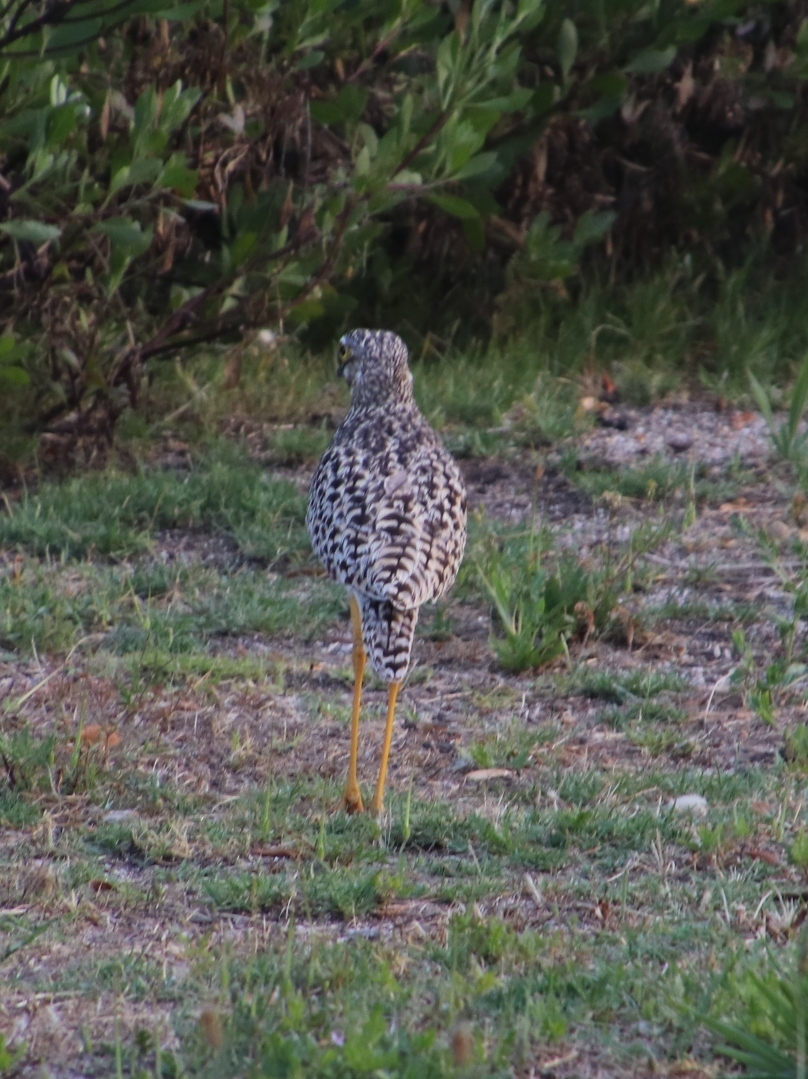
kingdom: Animalia
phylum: Chordata
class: Aves
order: Charadriiformes
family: Burhinidae
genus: Burhinus
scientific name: Burhinus capensis
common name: Spotted thick-knee
